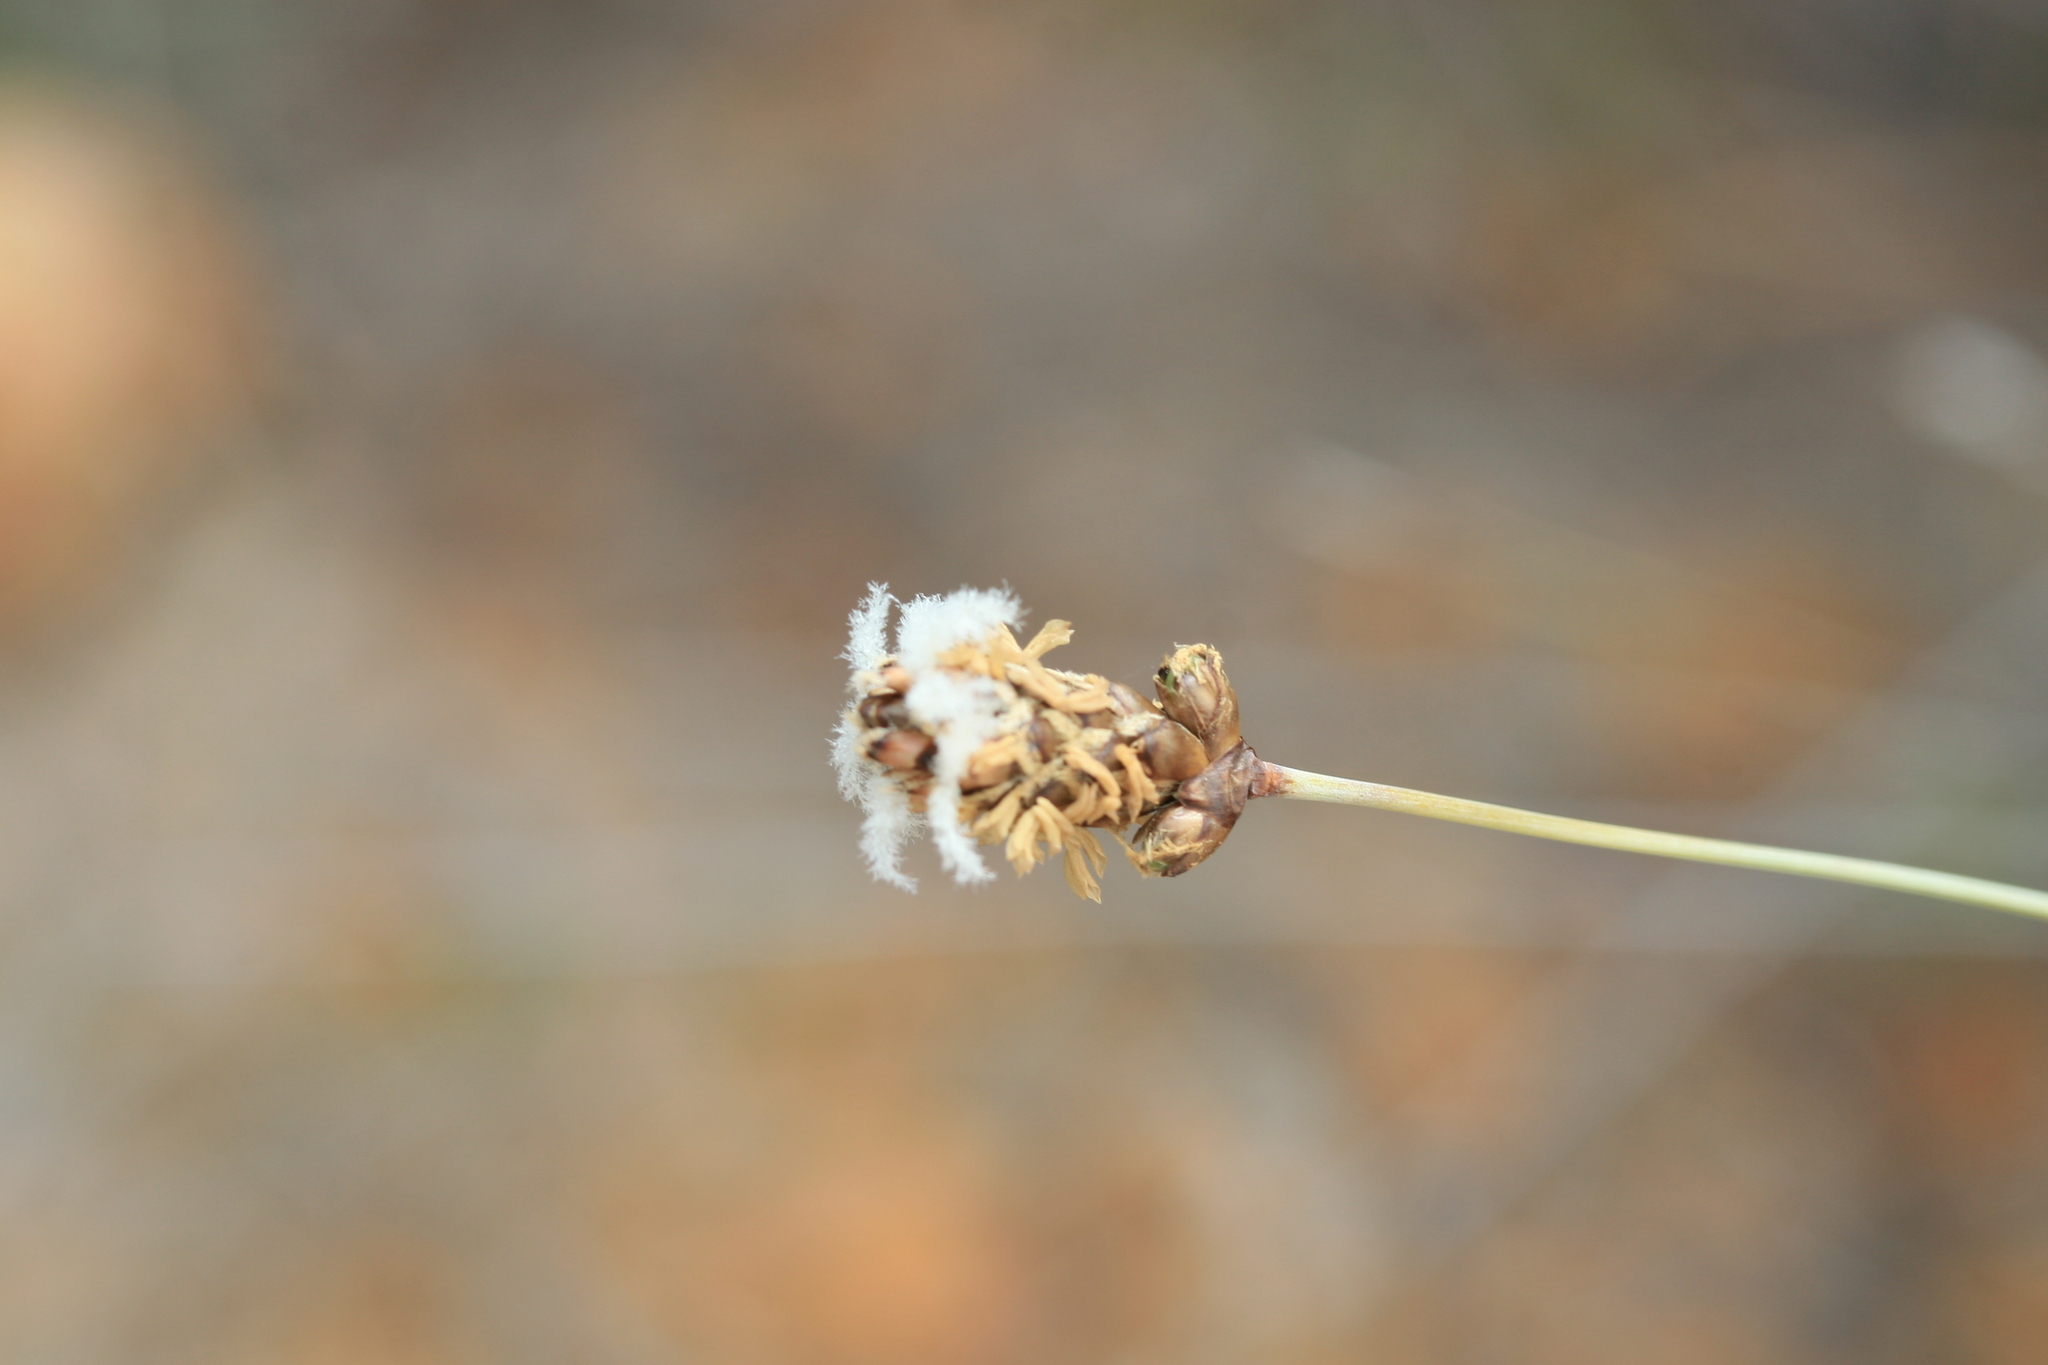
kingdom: Plantae
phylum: Tracheophyta
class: Liliopsida
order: Poales
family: Ecdeiocoleaceae
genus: Ecdeiocolea
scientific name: Ecdeiocolea monostachya
